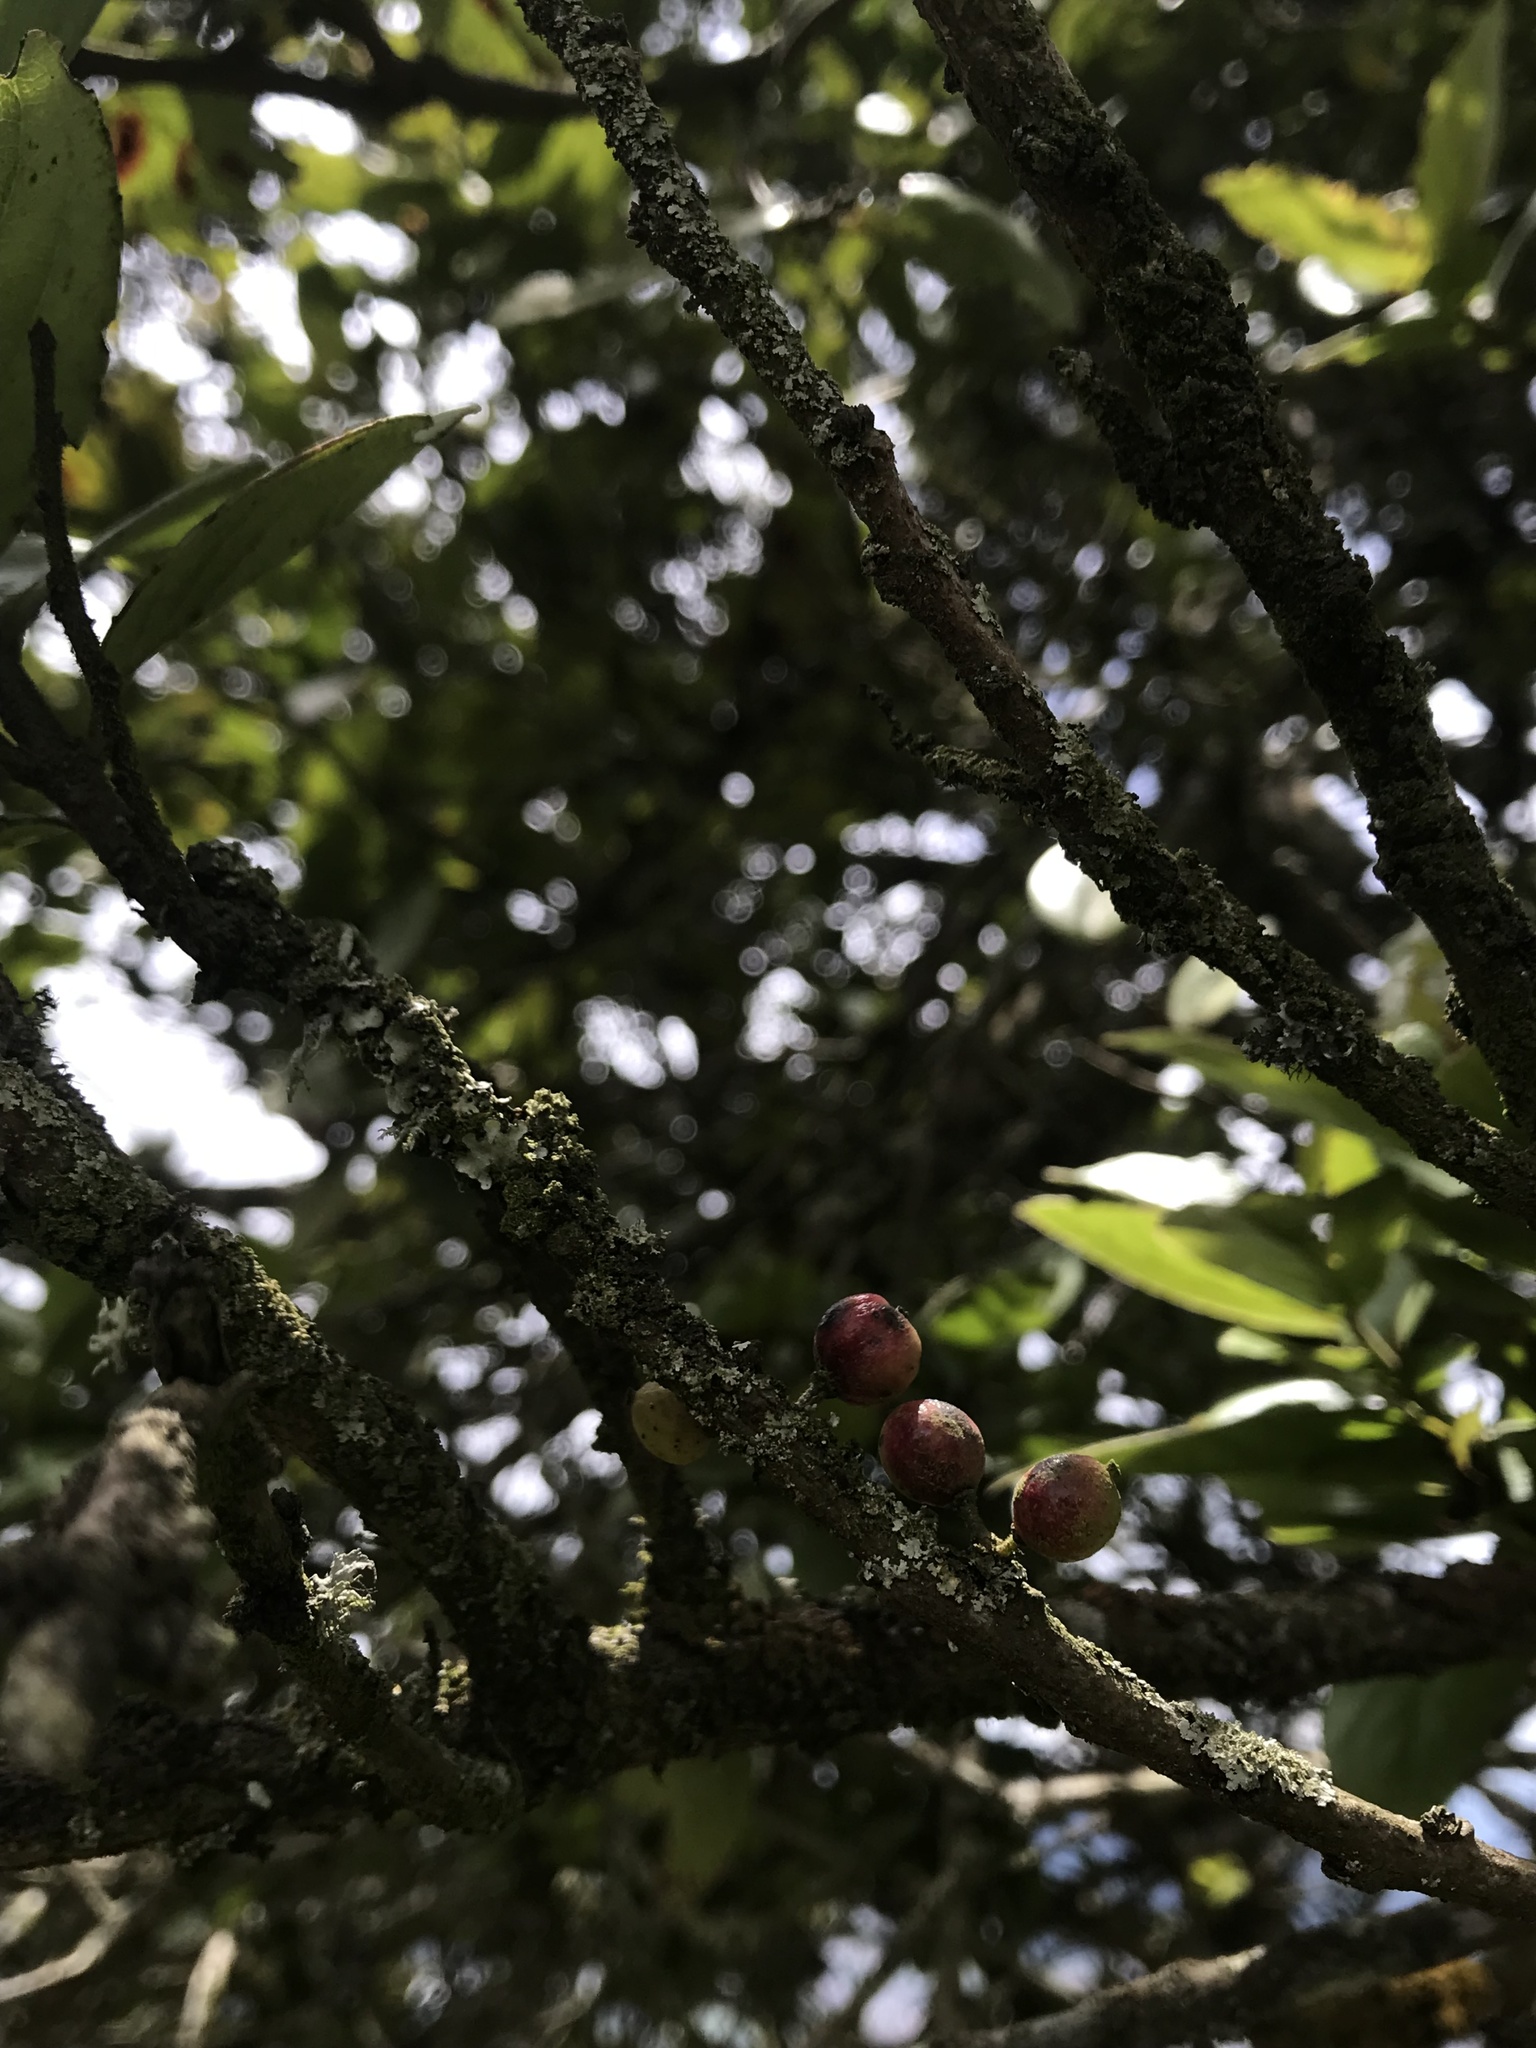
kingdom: Plantae
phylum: Tracheophyta
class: Magnoliopsida
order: Malpighiales
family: Salicaceae
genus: Xylosma
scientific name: Xylosma spiculifera
